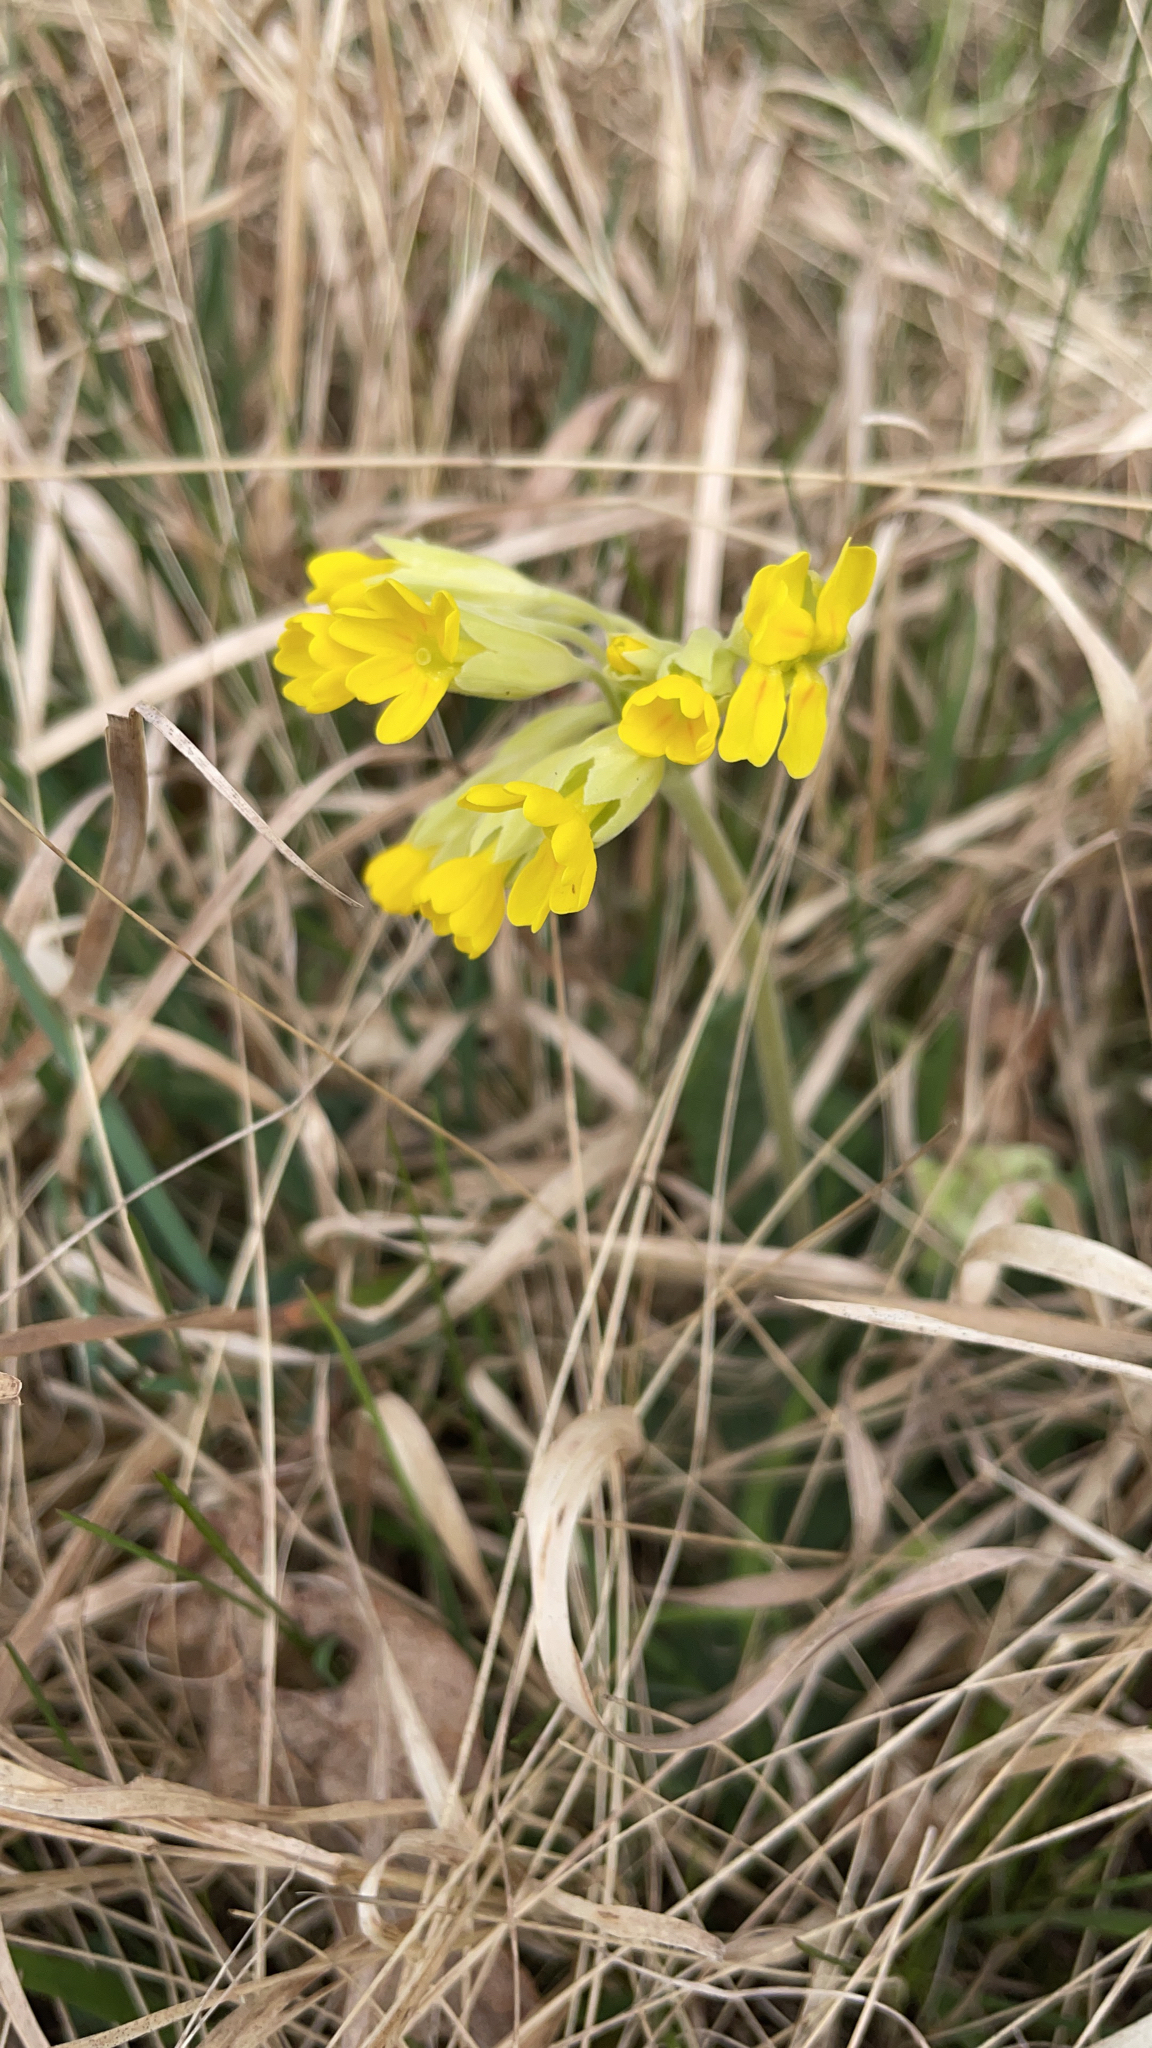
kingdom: Plantae
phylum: Tracheophyta
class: Magnoliopsida
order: Ericales
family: Primulaceae
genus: Primula
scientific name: Primula veris
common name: Cowslip
